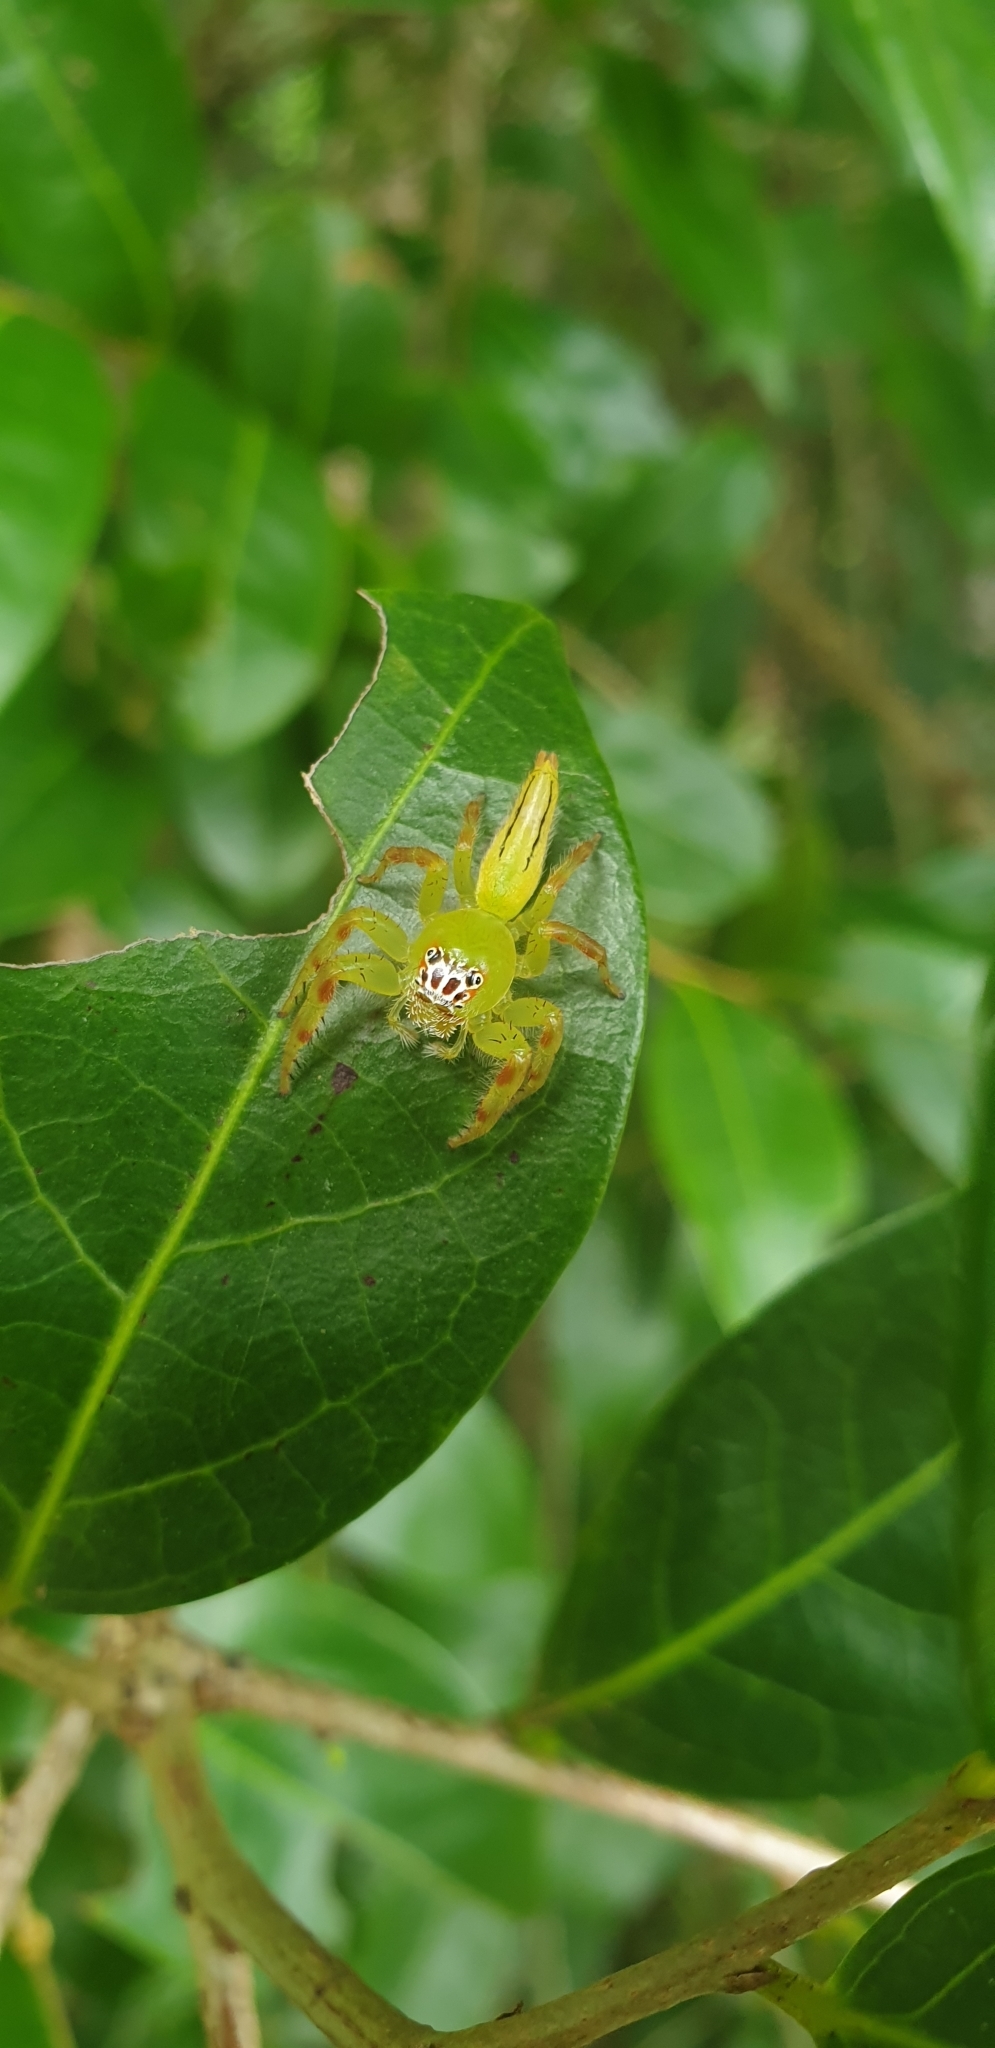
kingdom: Animalia
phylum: Arthropoda
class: Arachnida
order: Araneae
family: Salticidae
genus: Mopsus
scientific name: Mopsus mormon
